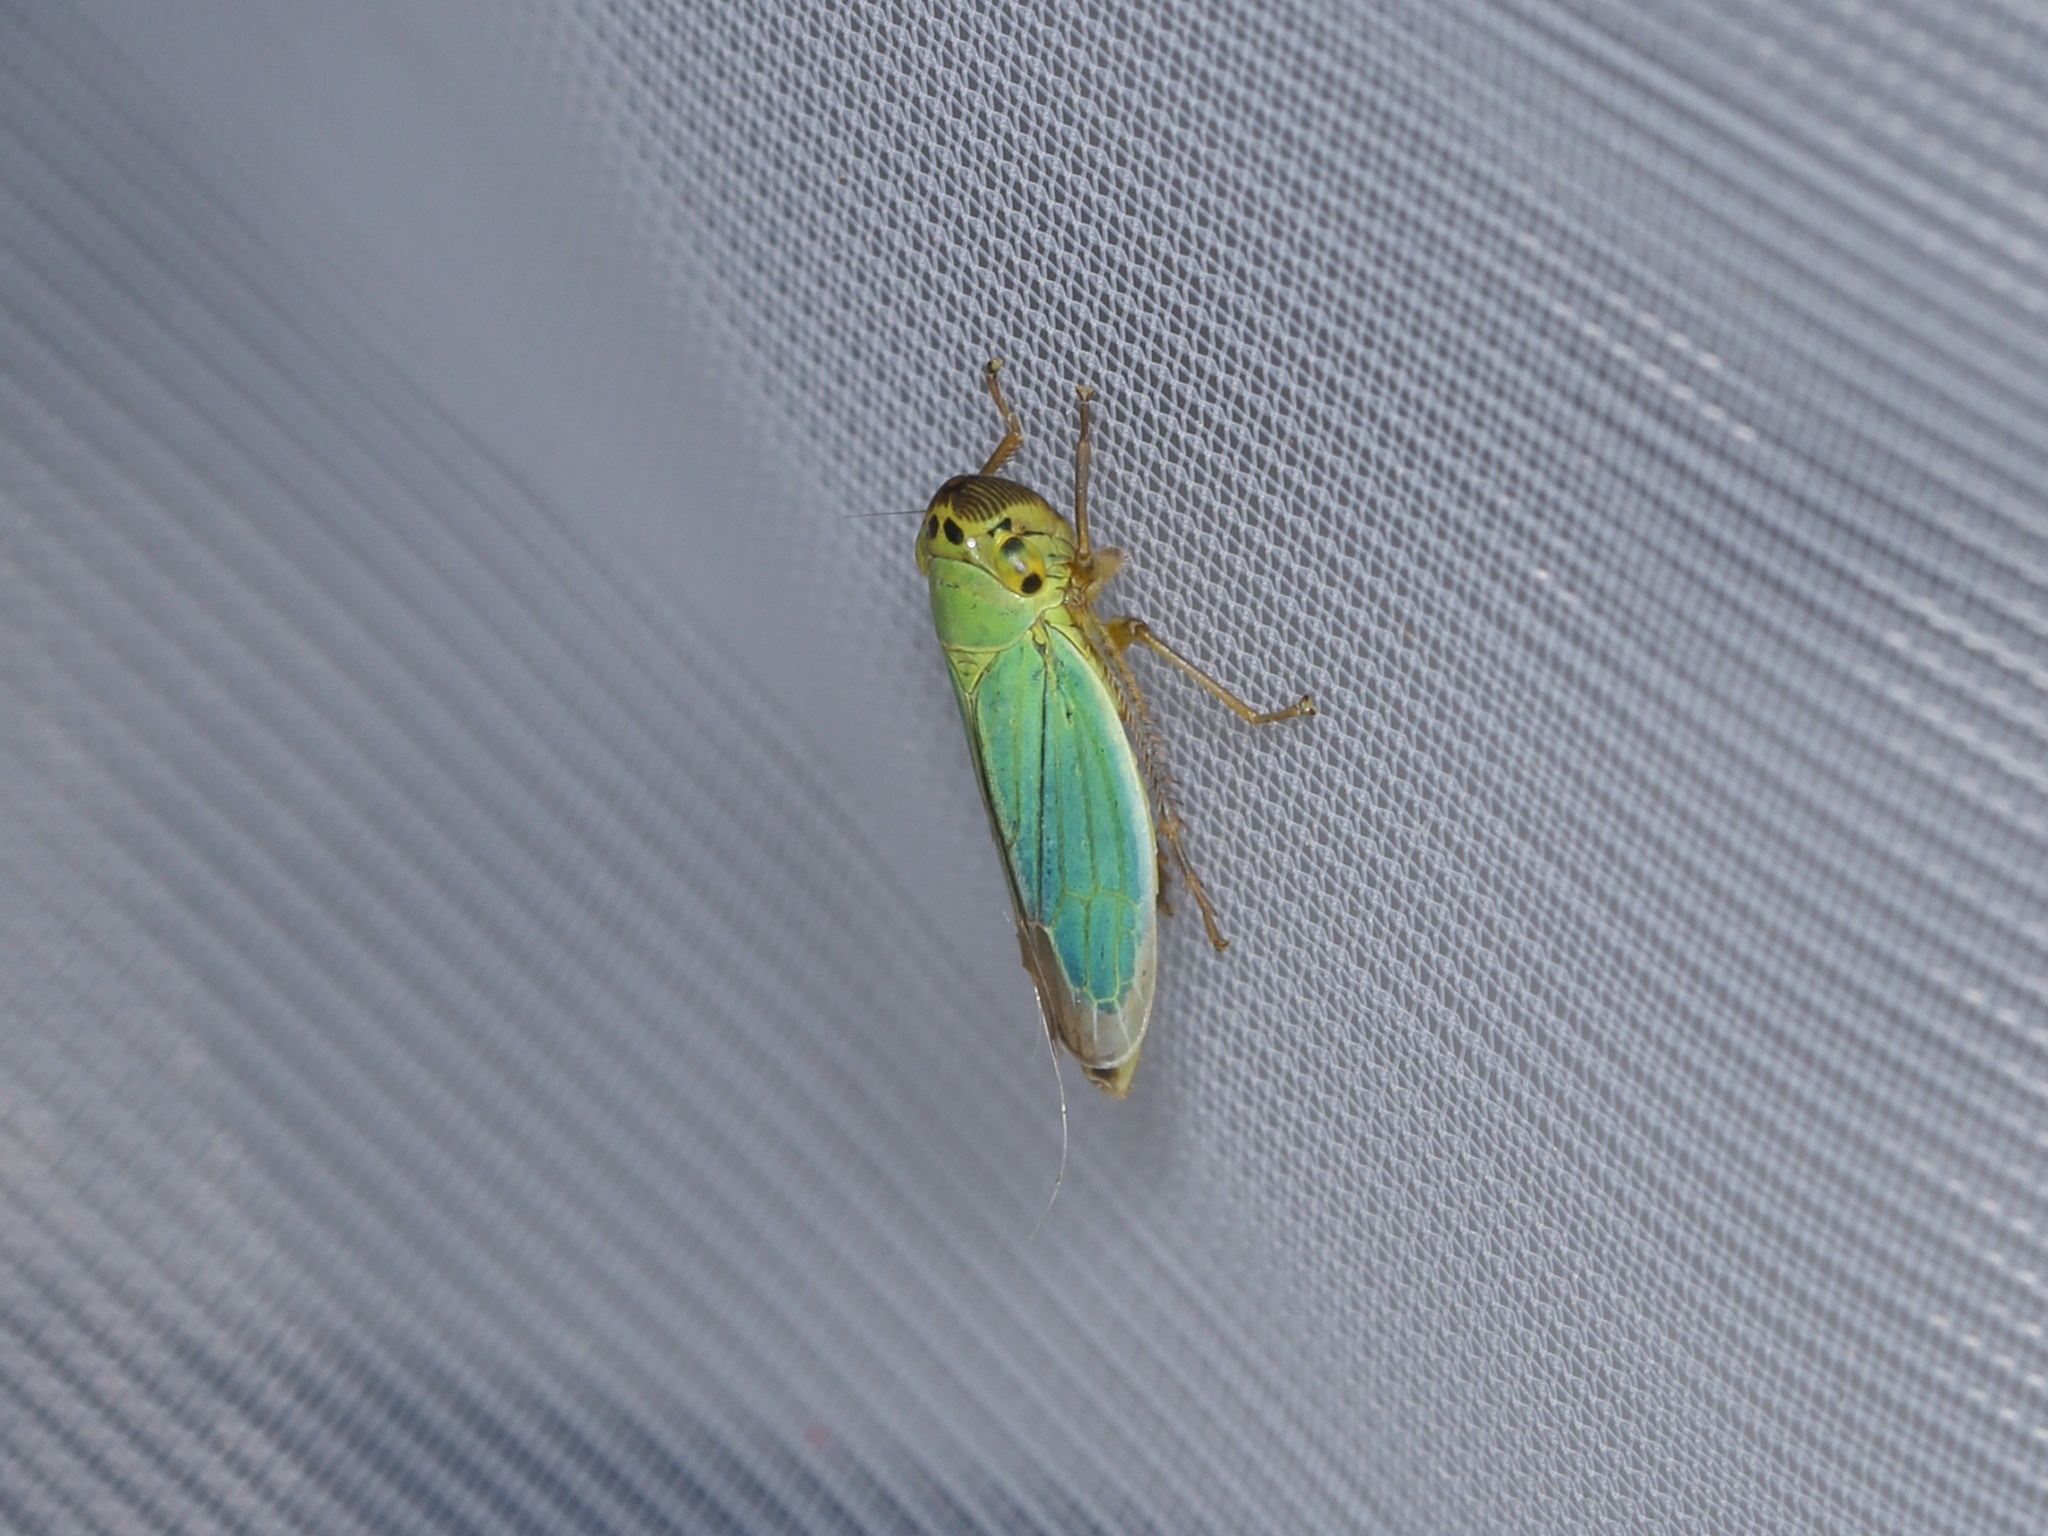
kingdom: Animalia
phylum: Arthropoda
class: Insecta
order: Hemiptera
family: Cicadellidae
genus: Cicadella
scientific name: Cicadella viridis
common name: Leafhopper
